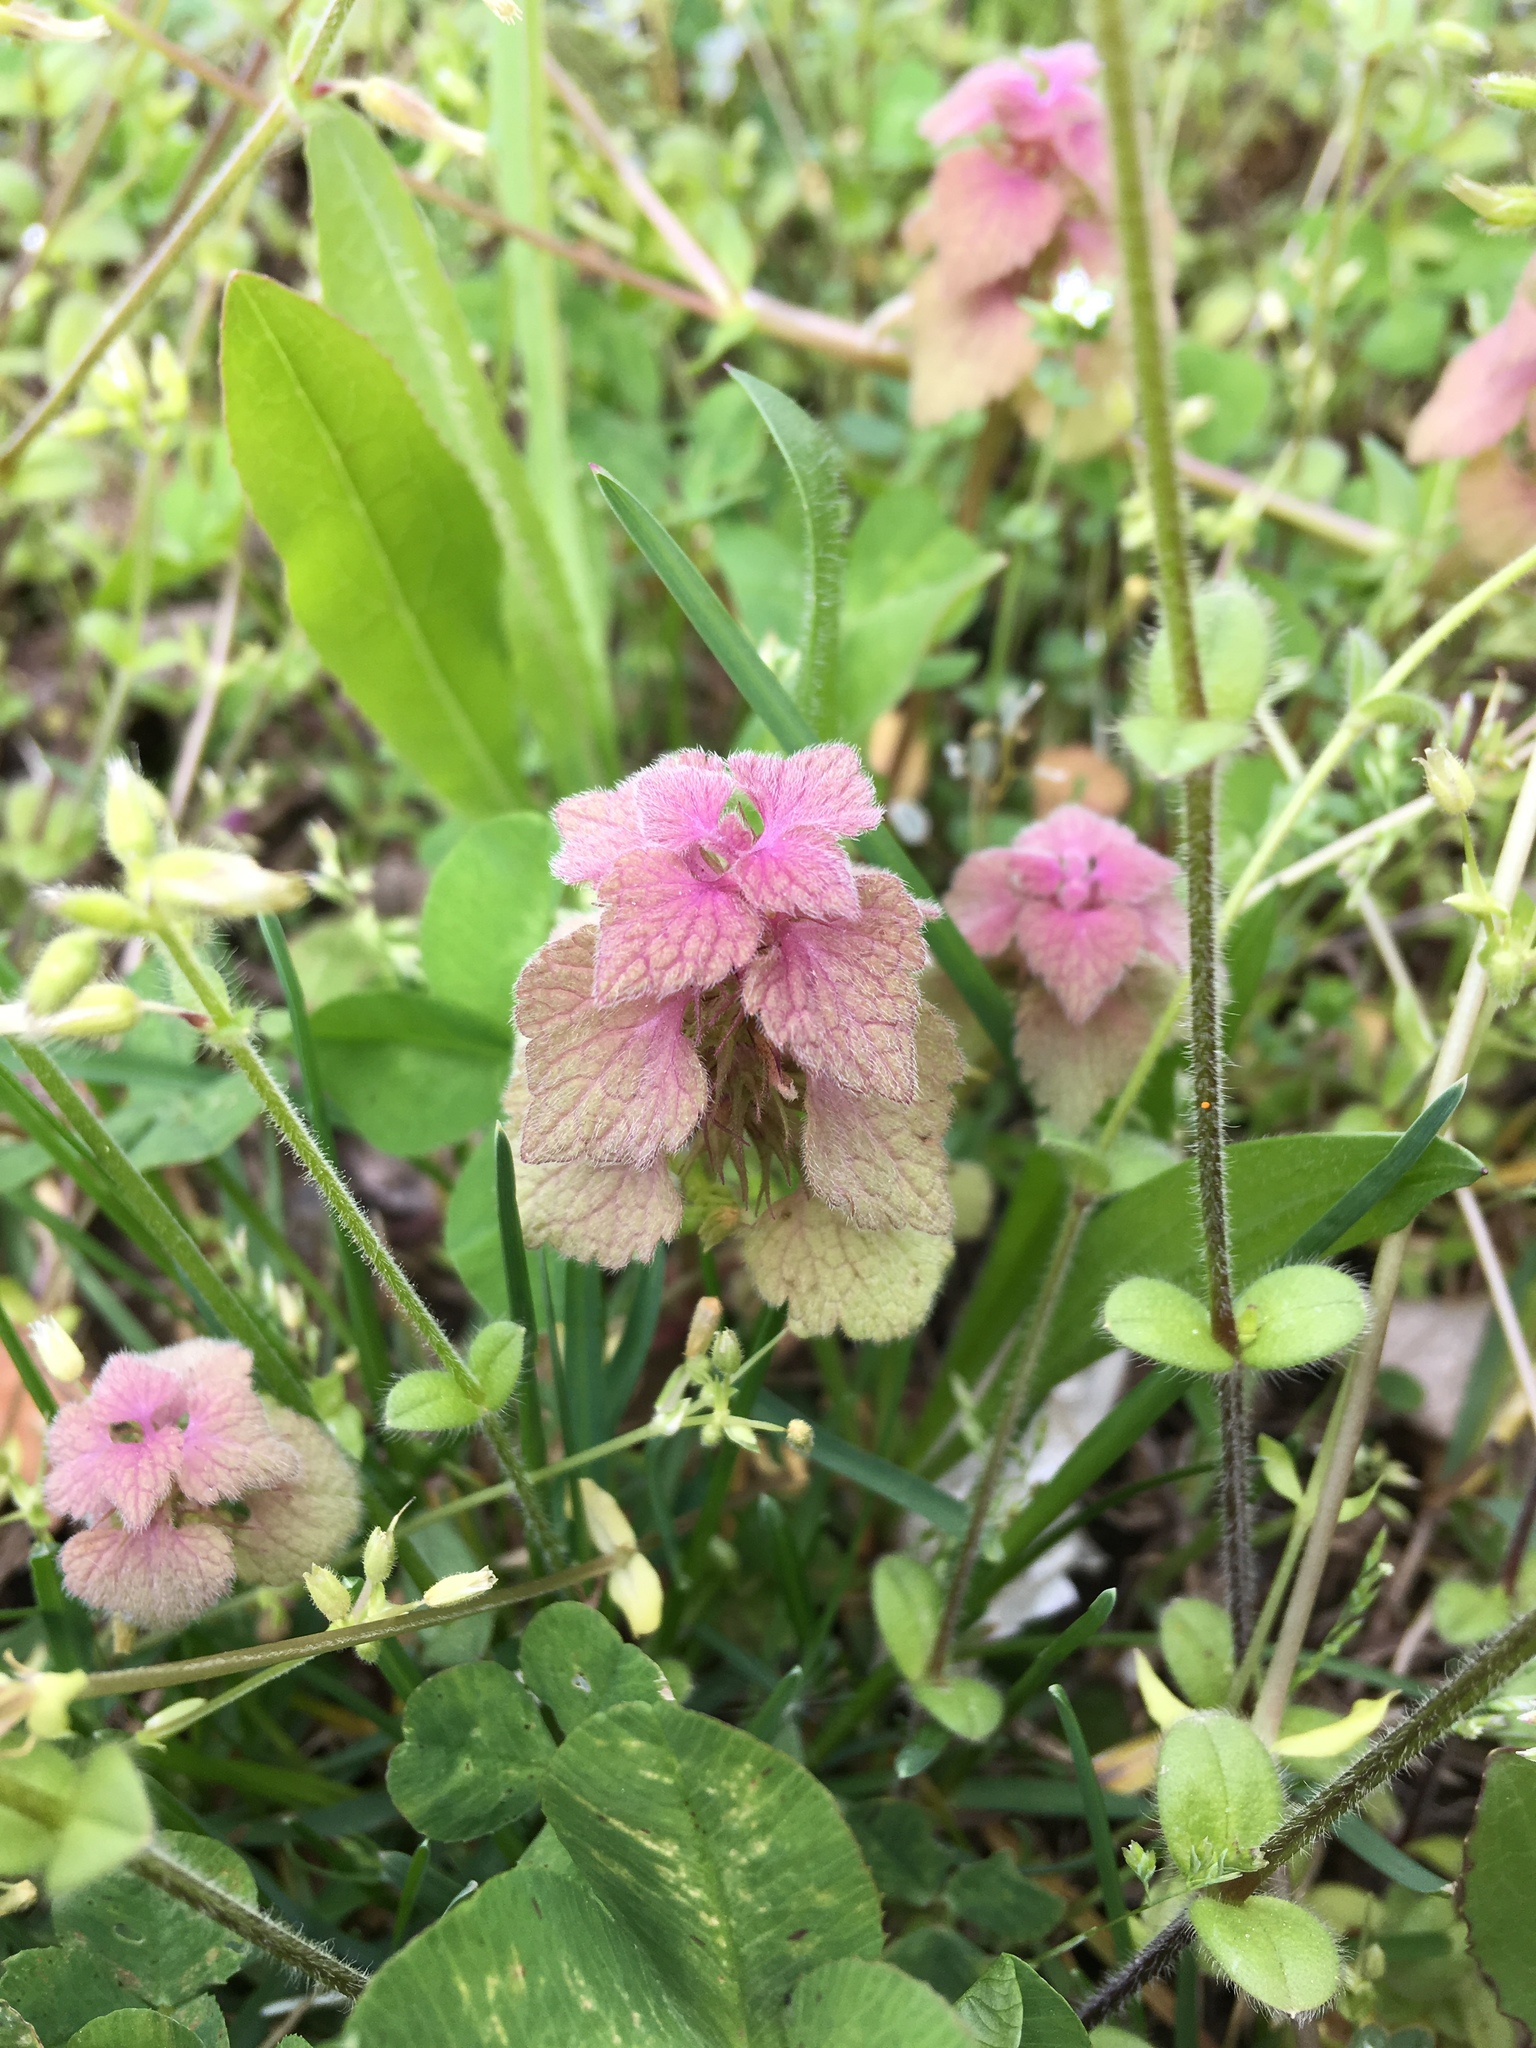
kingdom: Plantae
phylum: Tracheophyta
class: Magnoliopsida
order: Lamiales
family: Lamiaceae
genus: Lamium
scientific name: Lamium purpureum
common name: Red dead-nettle
